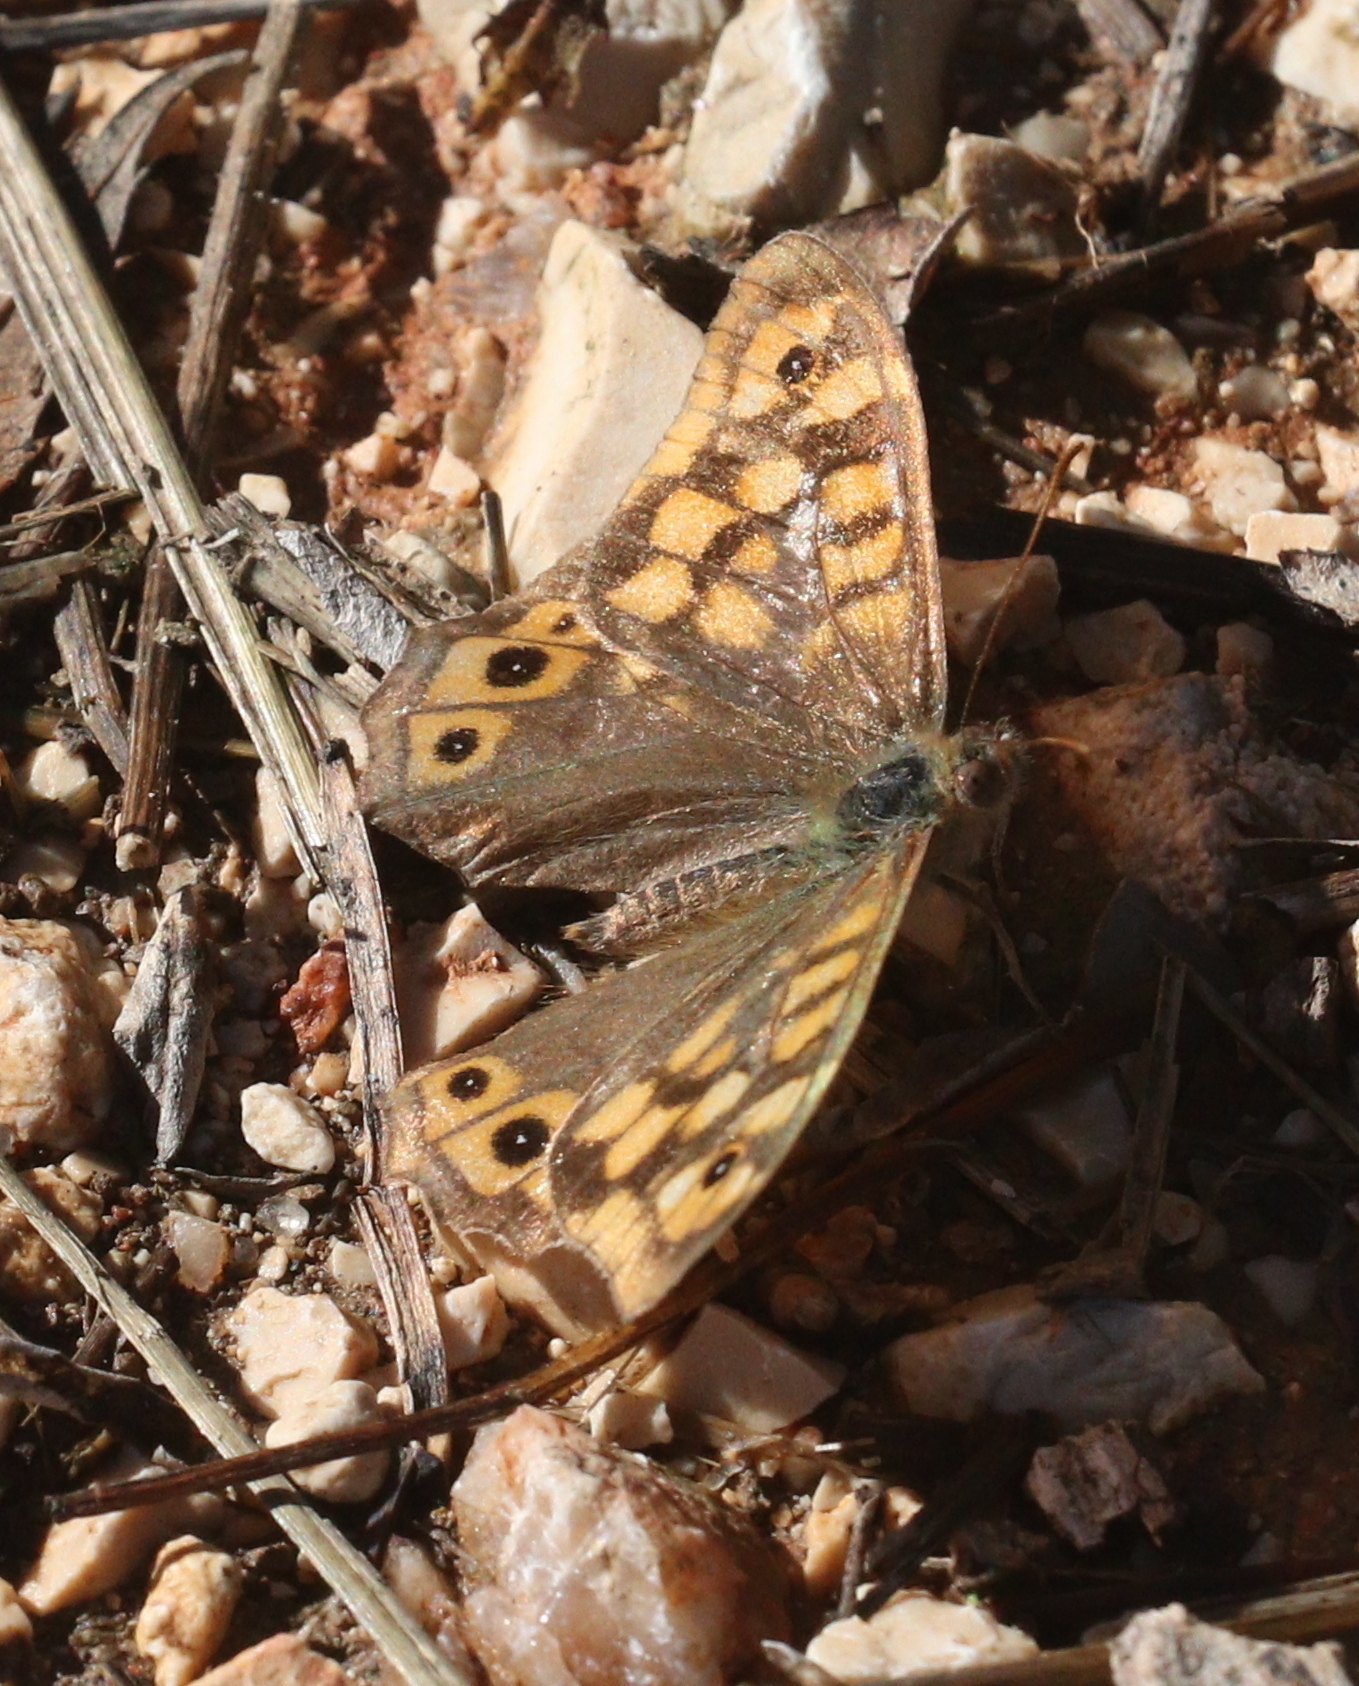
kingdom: Animalia
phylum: Arthropoda
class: Insecta
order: Lepidoptera
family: Nymphalidae
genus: Pararge
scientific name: Pararge aegeria
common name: Speckled wood
